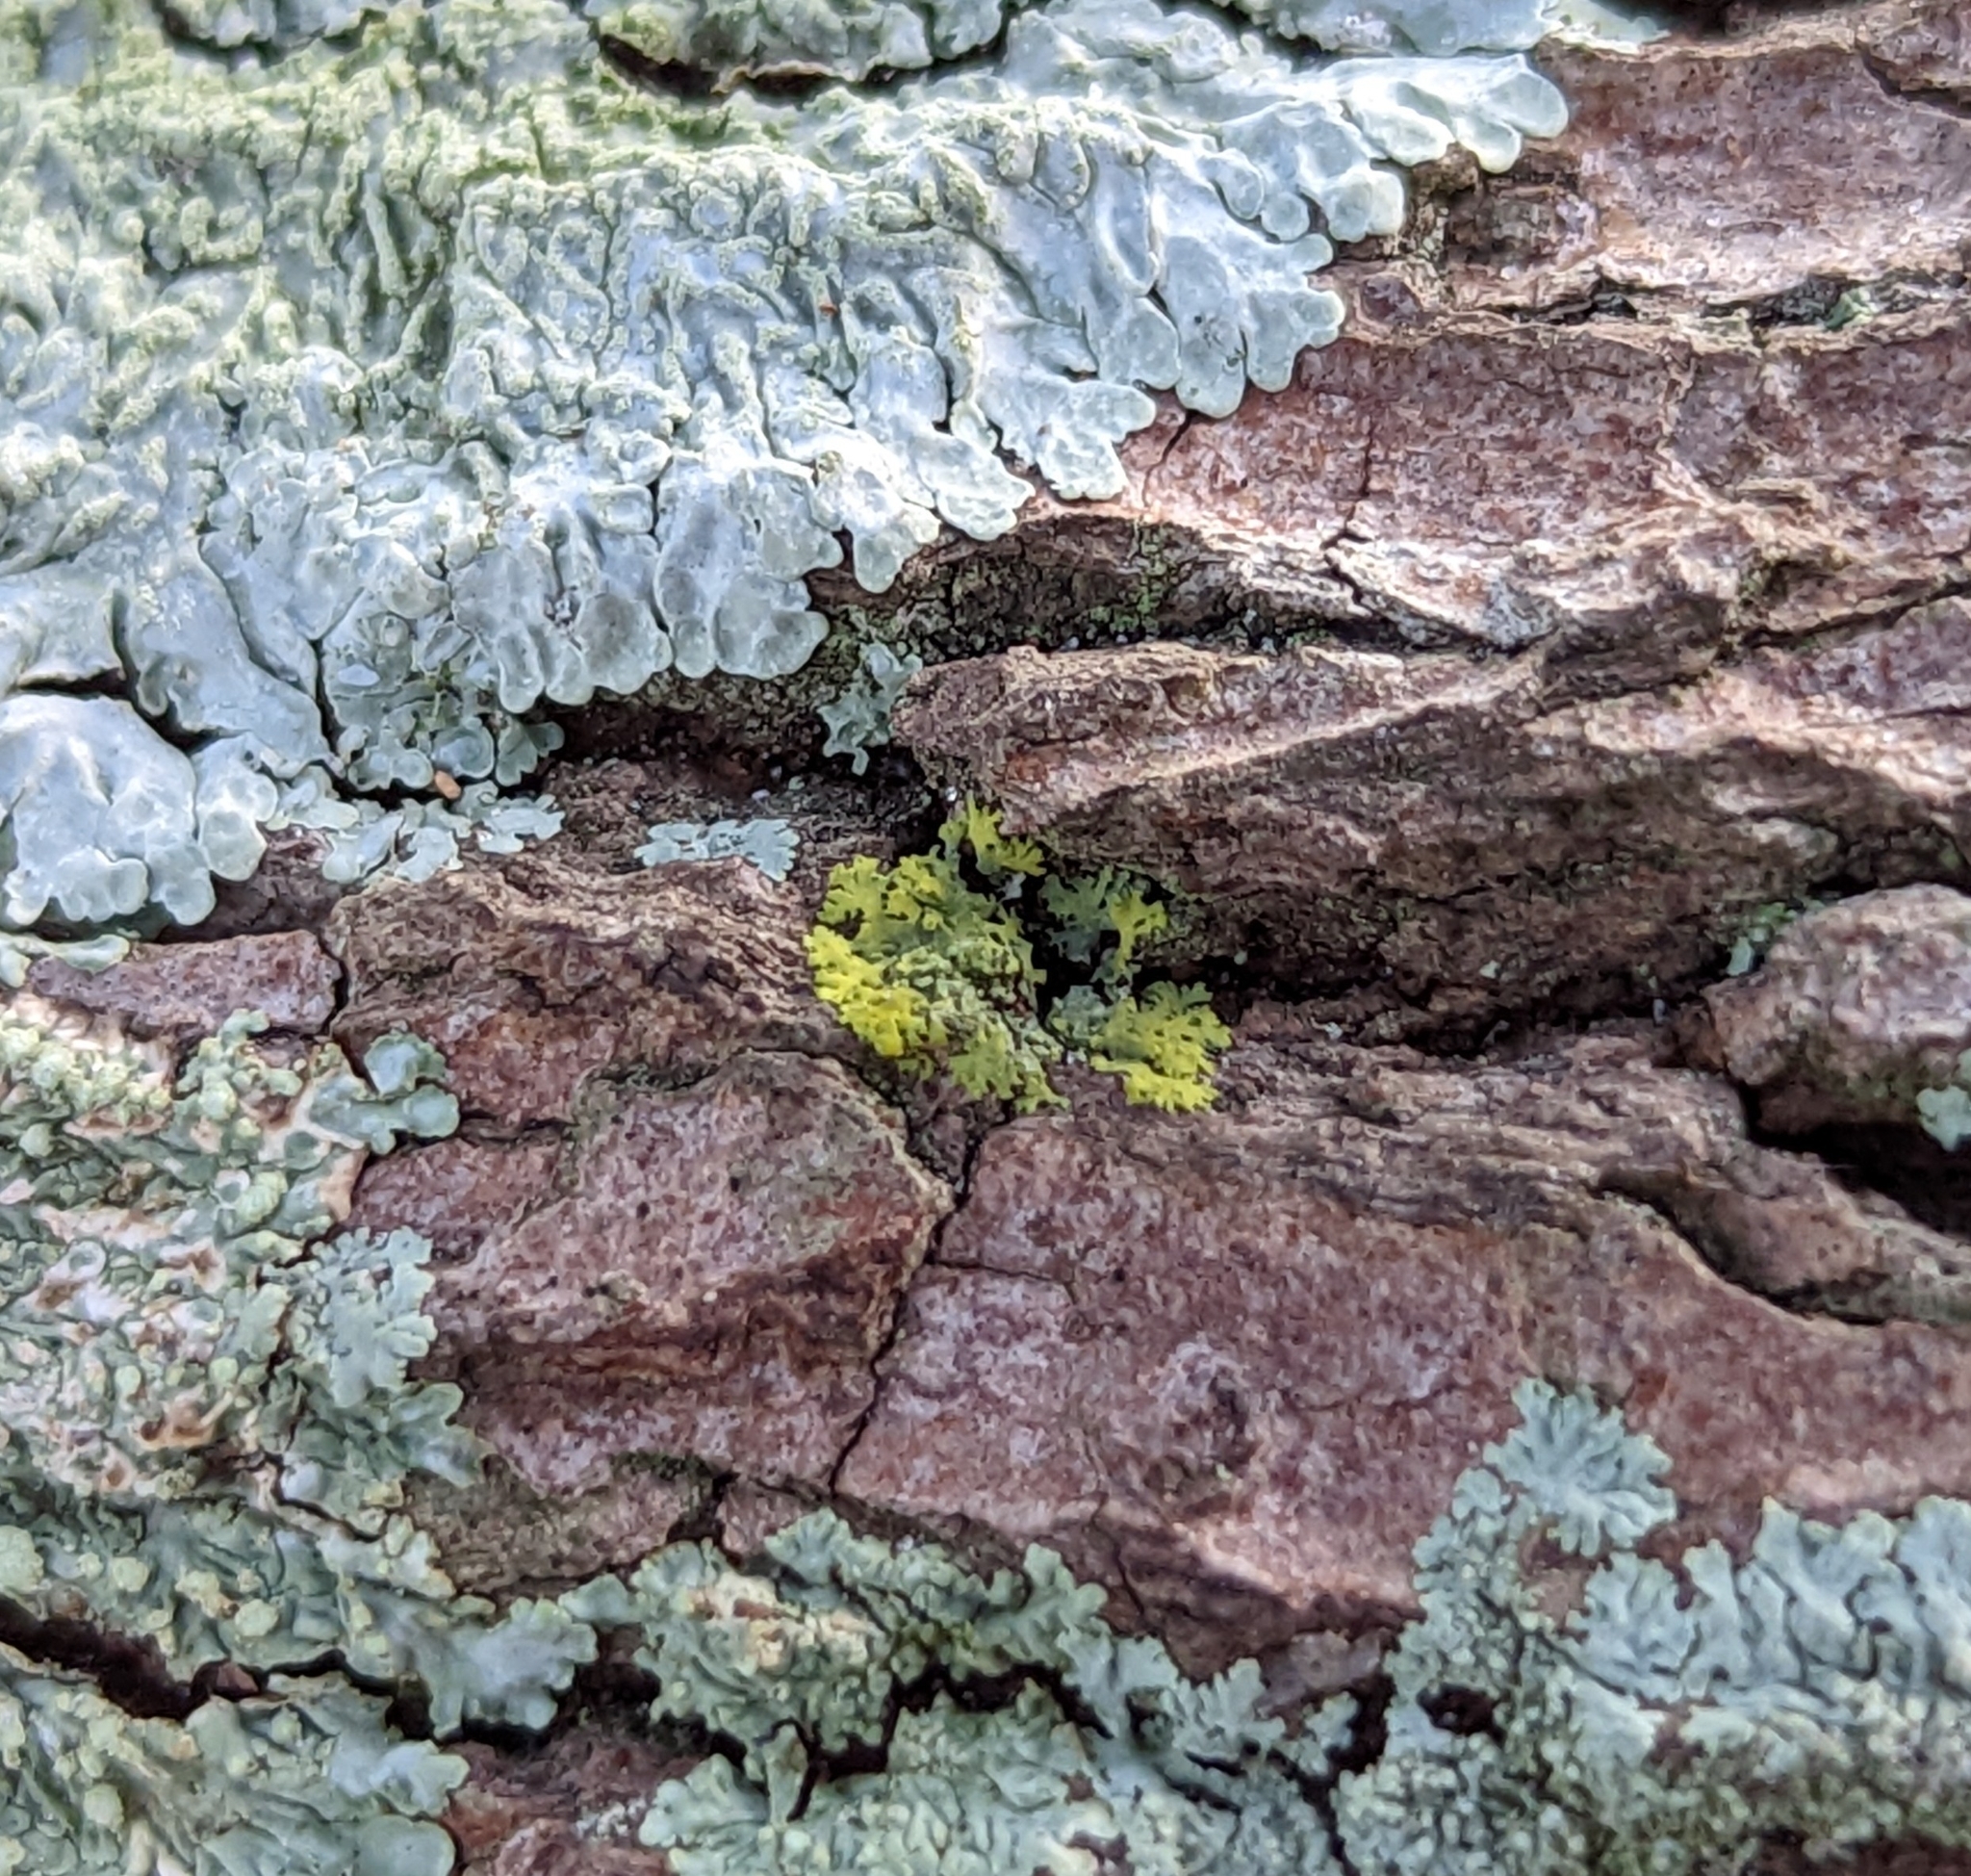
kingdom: Fungi
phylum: Ascomycota
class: Candelariomycetes
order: Candelariales
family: Candelariaceae
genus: Candelaria
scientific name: Candelaria concolor
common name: Candleflame lichen
